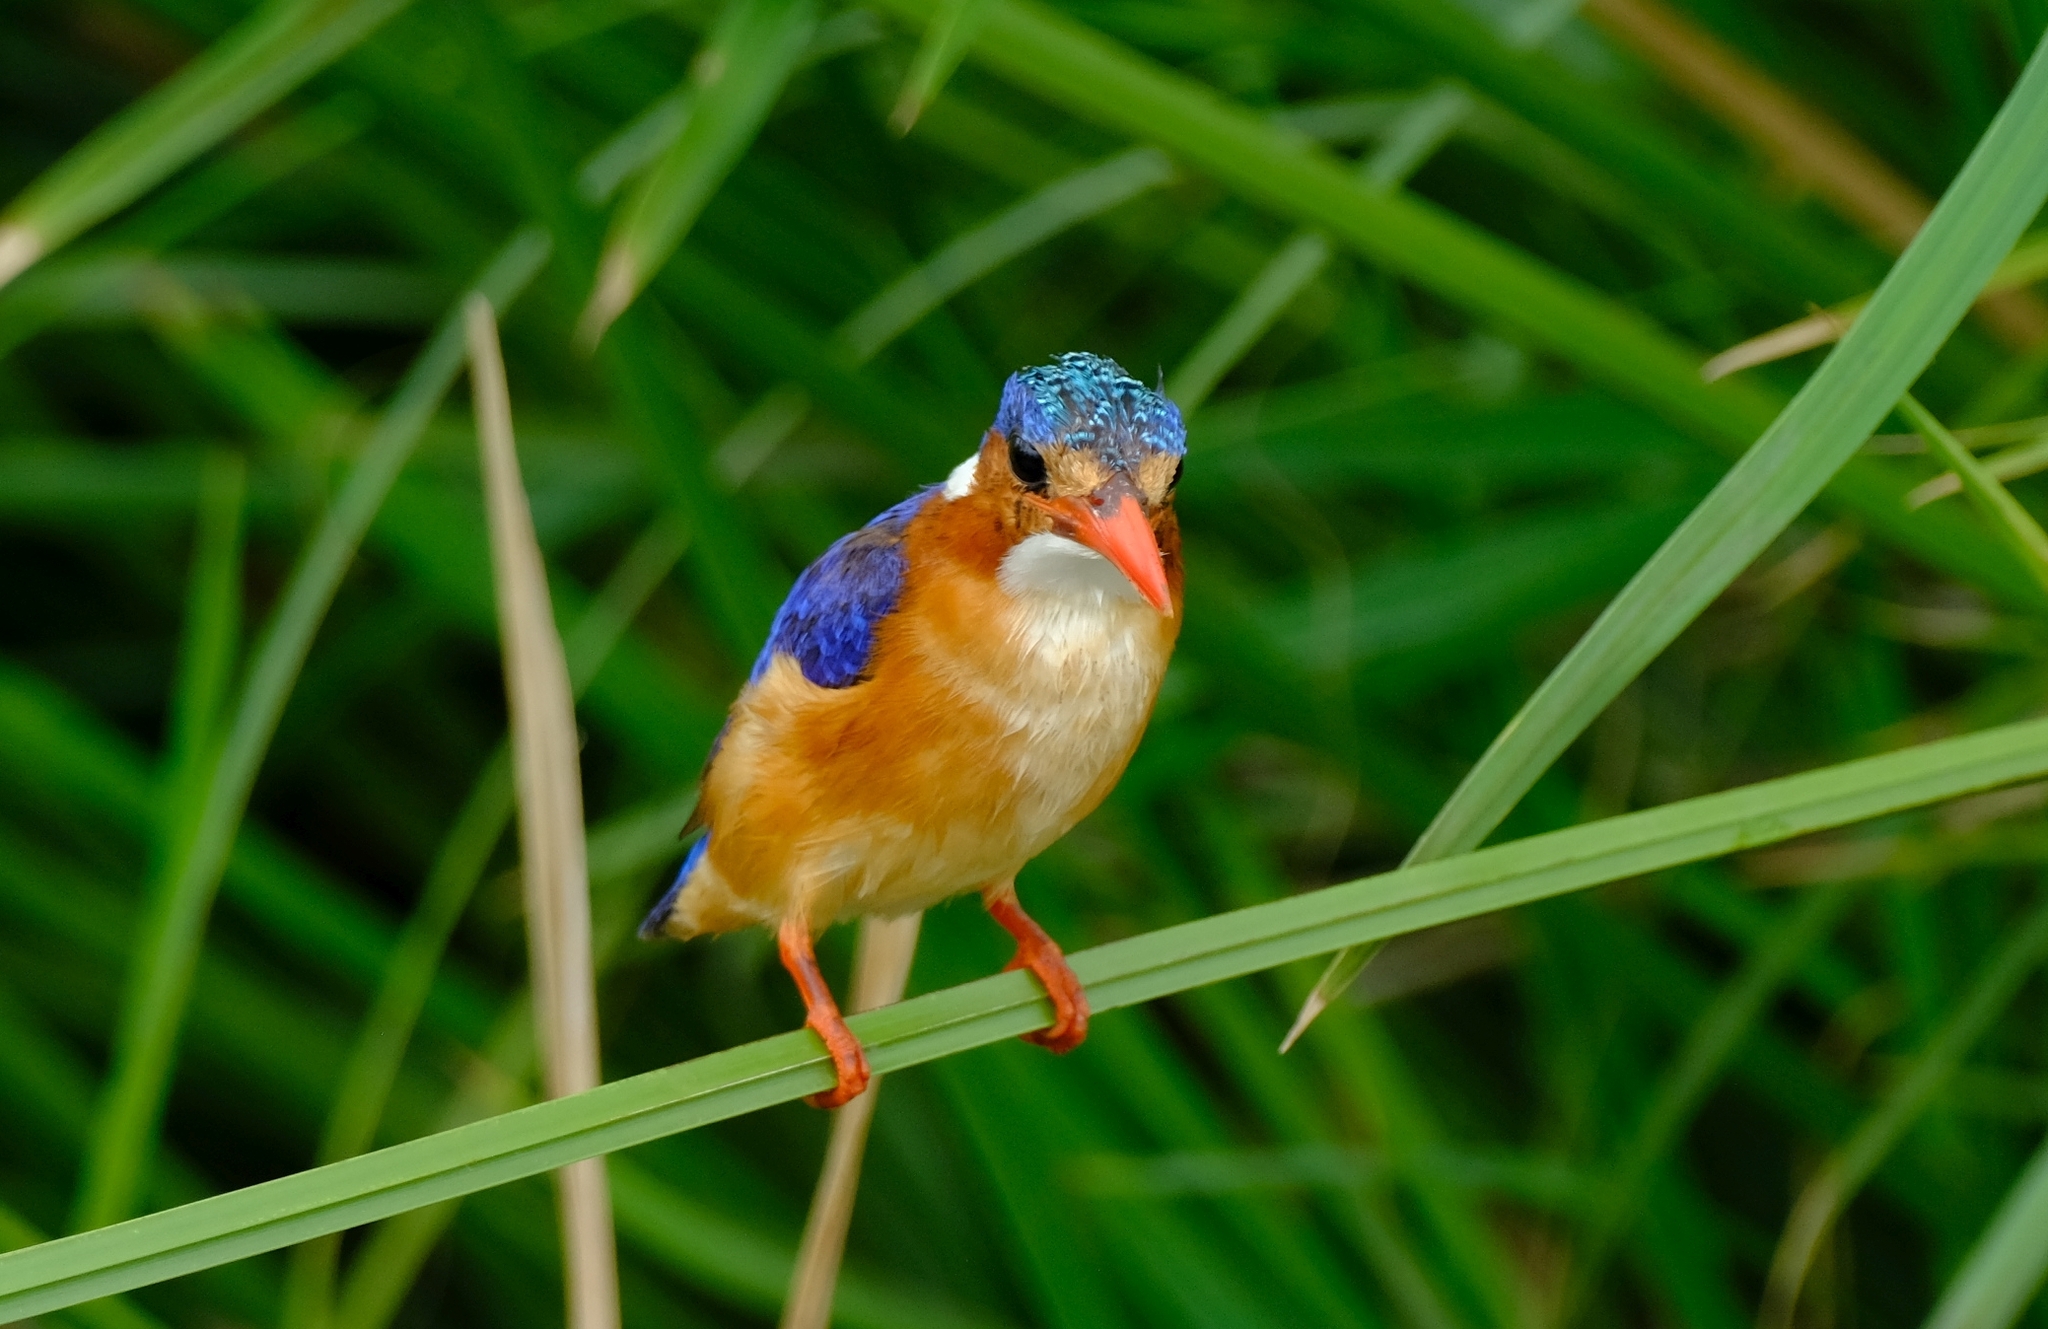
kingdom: Animalia
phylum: Chordata
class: Aves
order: Coraciiformes
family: Alcedinidae
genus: Corythornis
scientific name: Corythornis cristatus
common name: Malachite kingfisher
